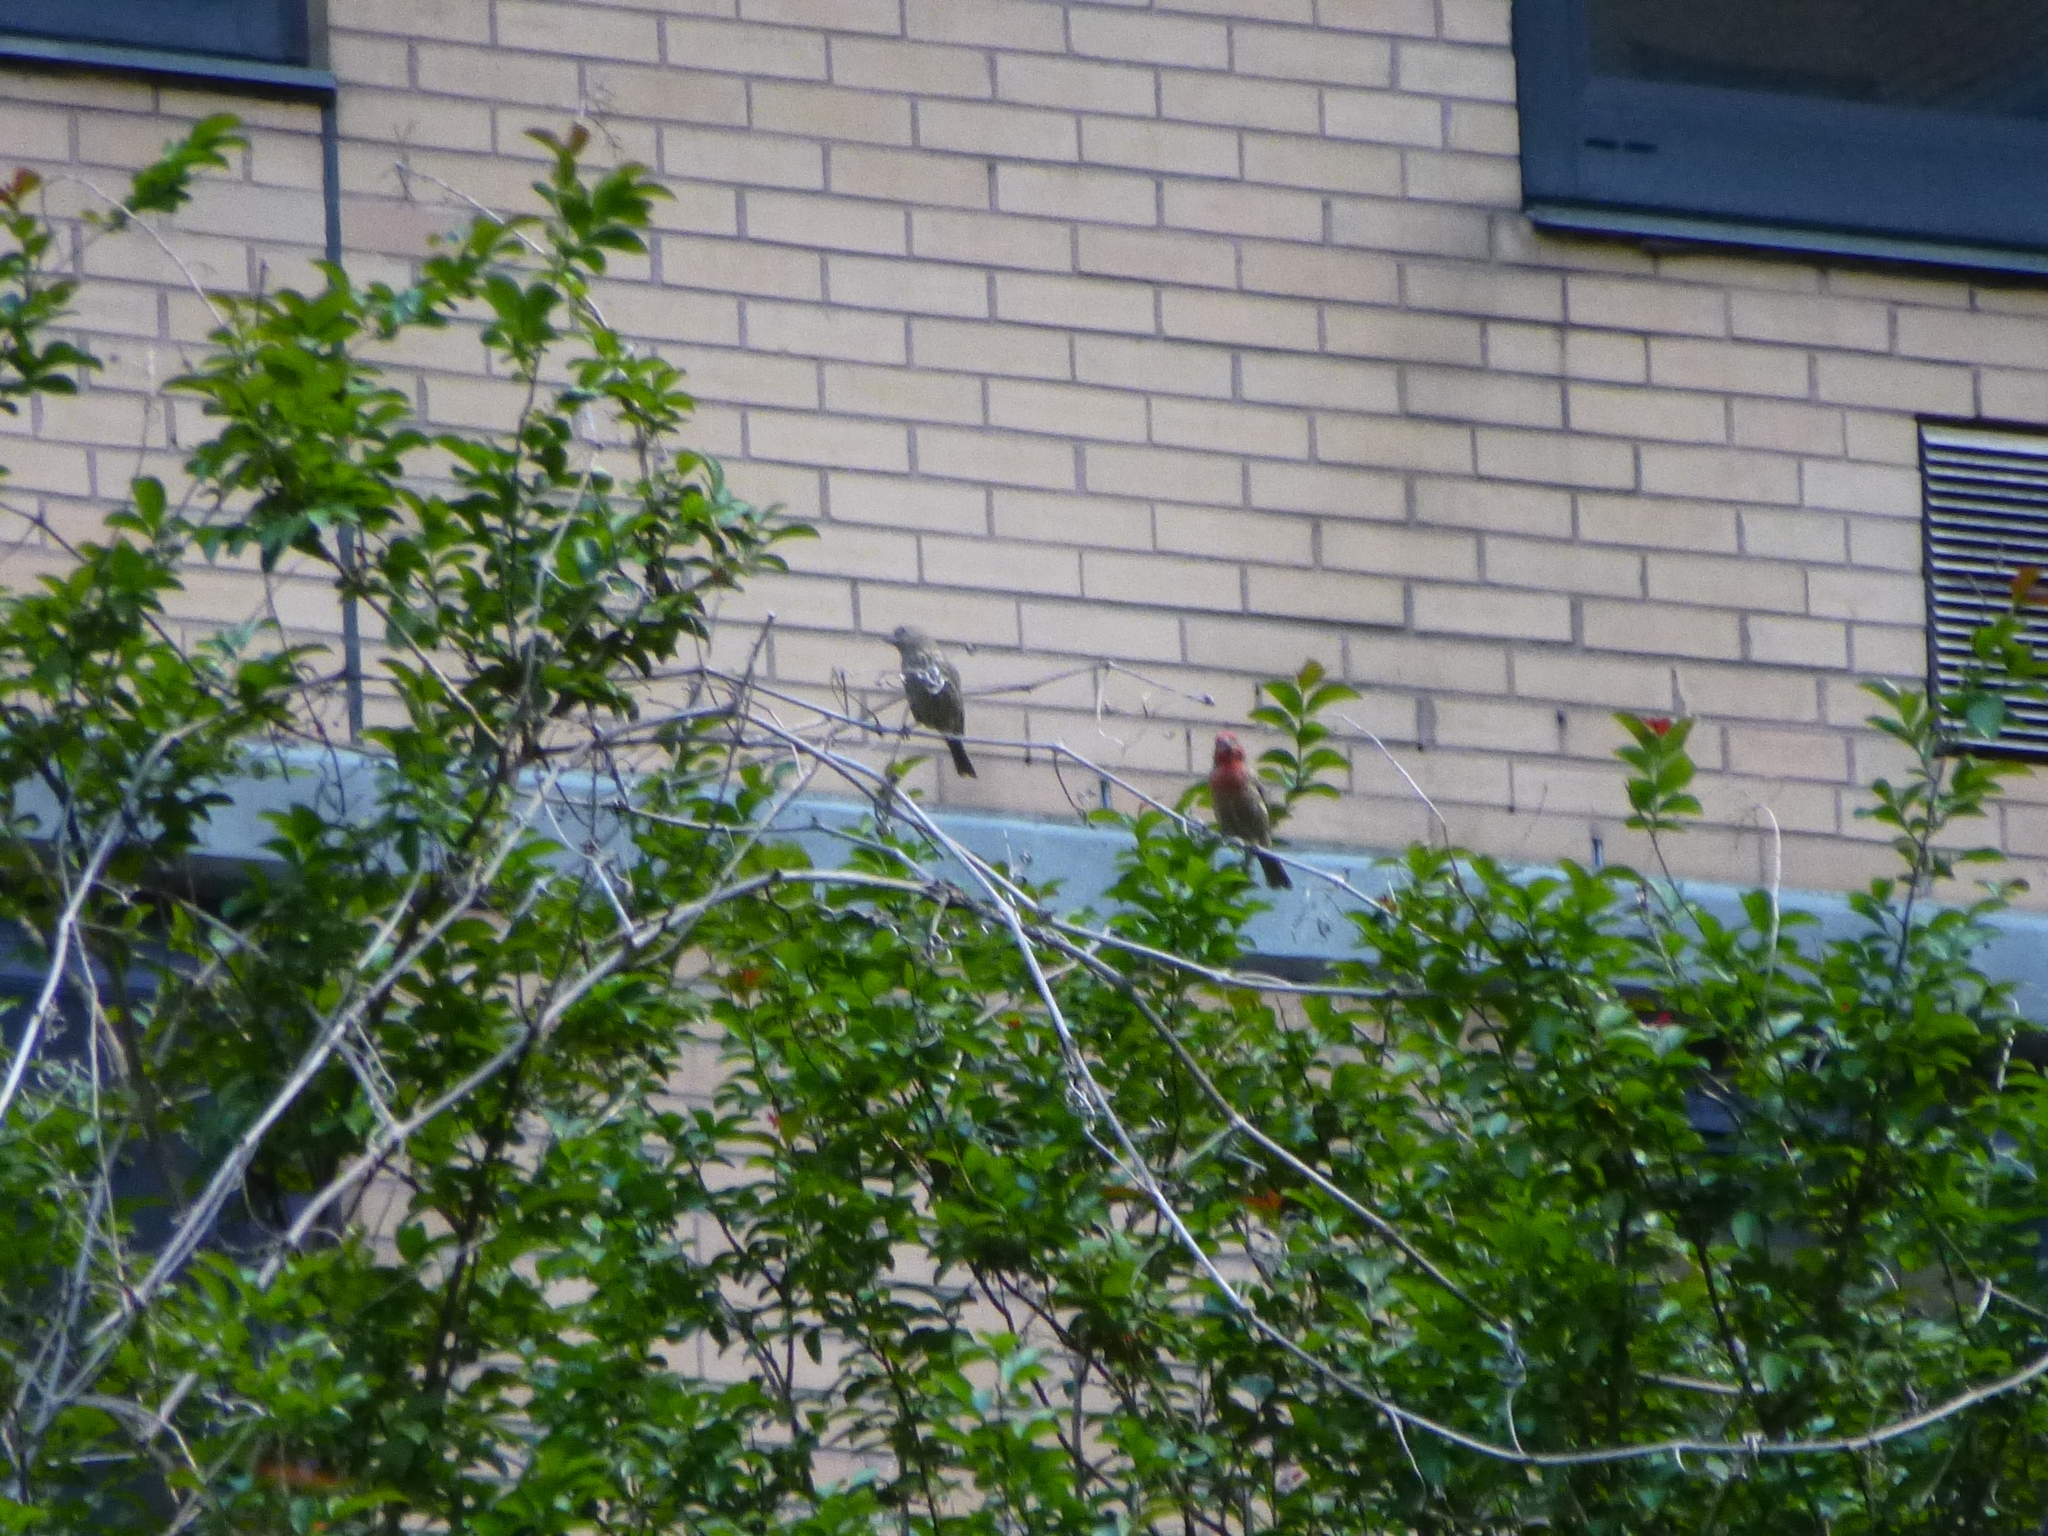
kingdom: Animalia
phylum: Chordata
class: Aves
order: Passeriformes
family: Fringillidae
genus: Haemorhous
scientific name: Haemorhous mexicanus
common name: House finch
